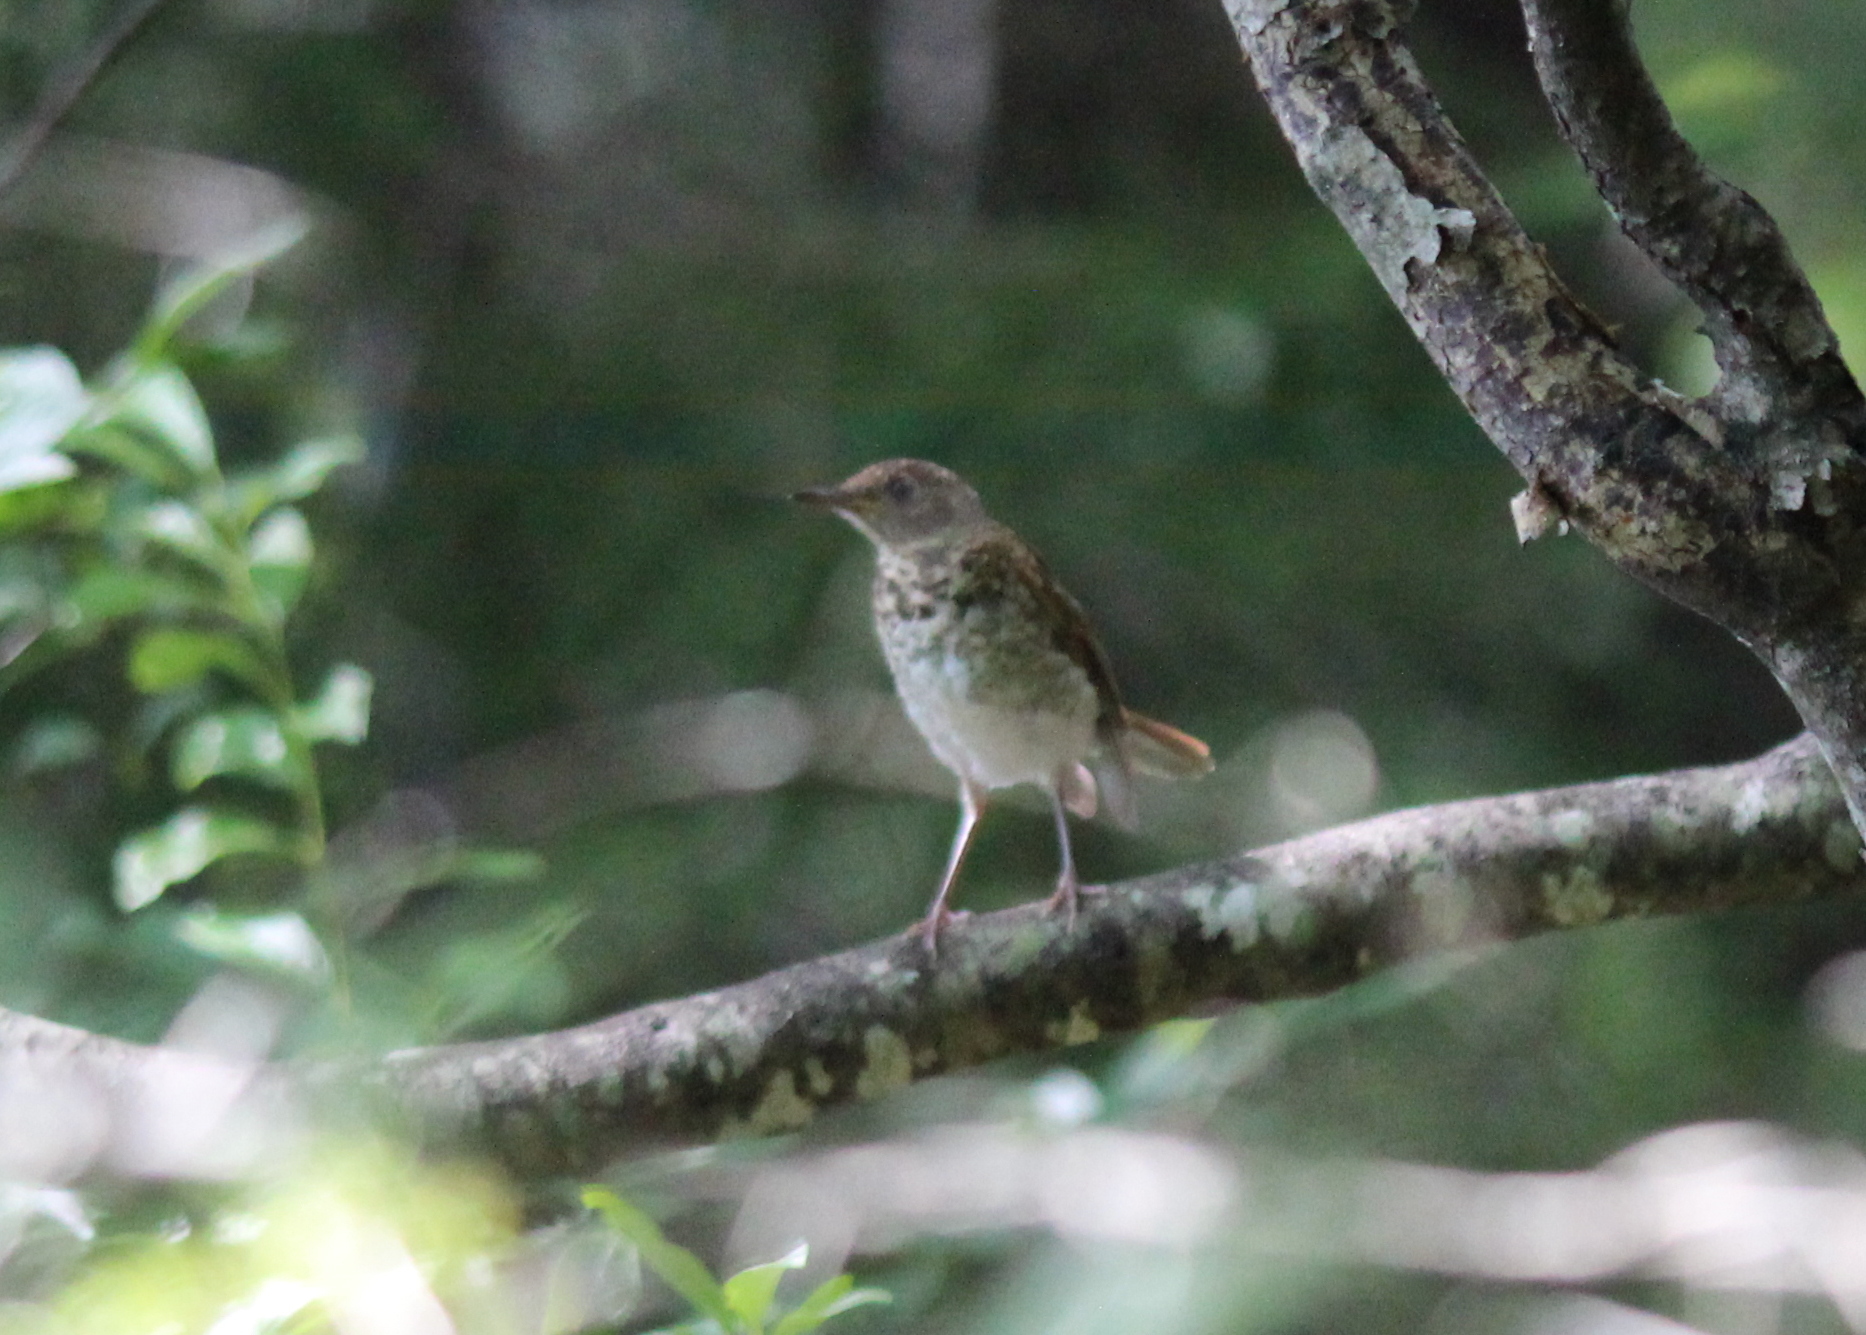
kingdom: Animalia
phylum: Chordata
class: Aves
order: Passeriformes
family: Turdidae
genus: Catharus
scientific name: Catharus guttatus
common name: Hermit thrush
